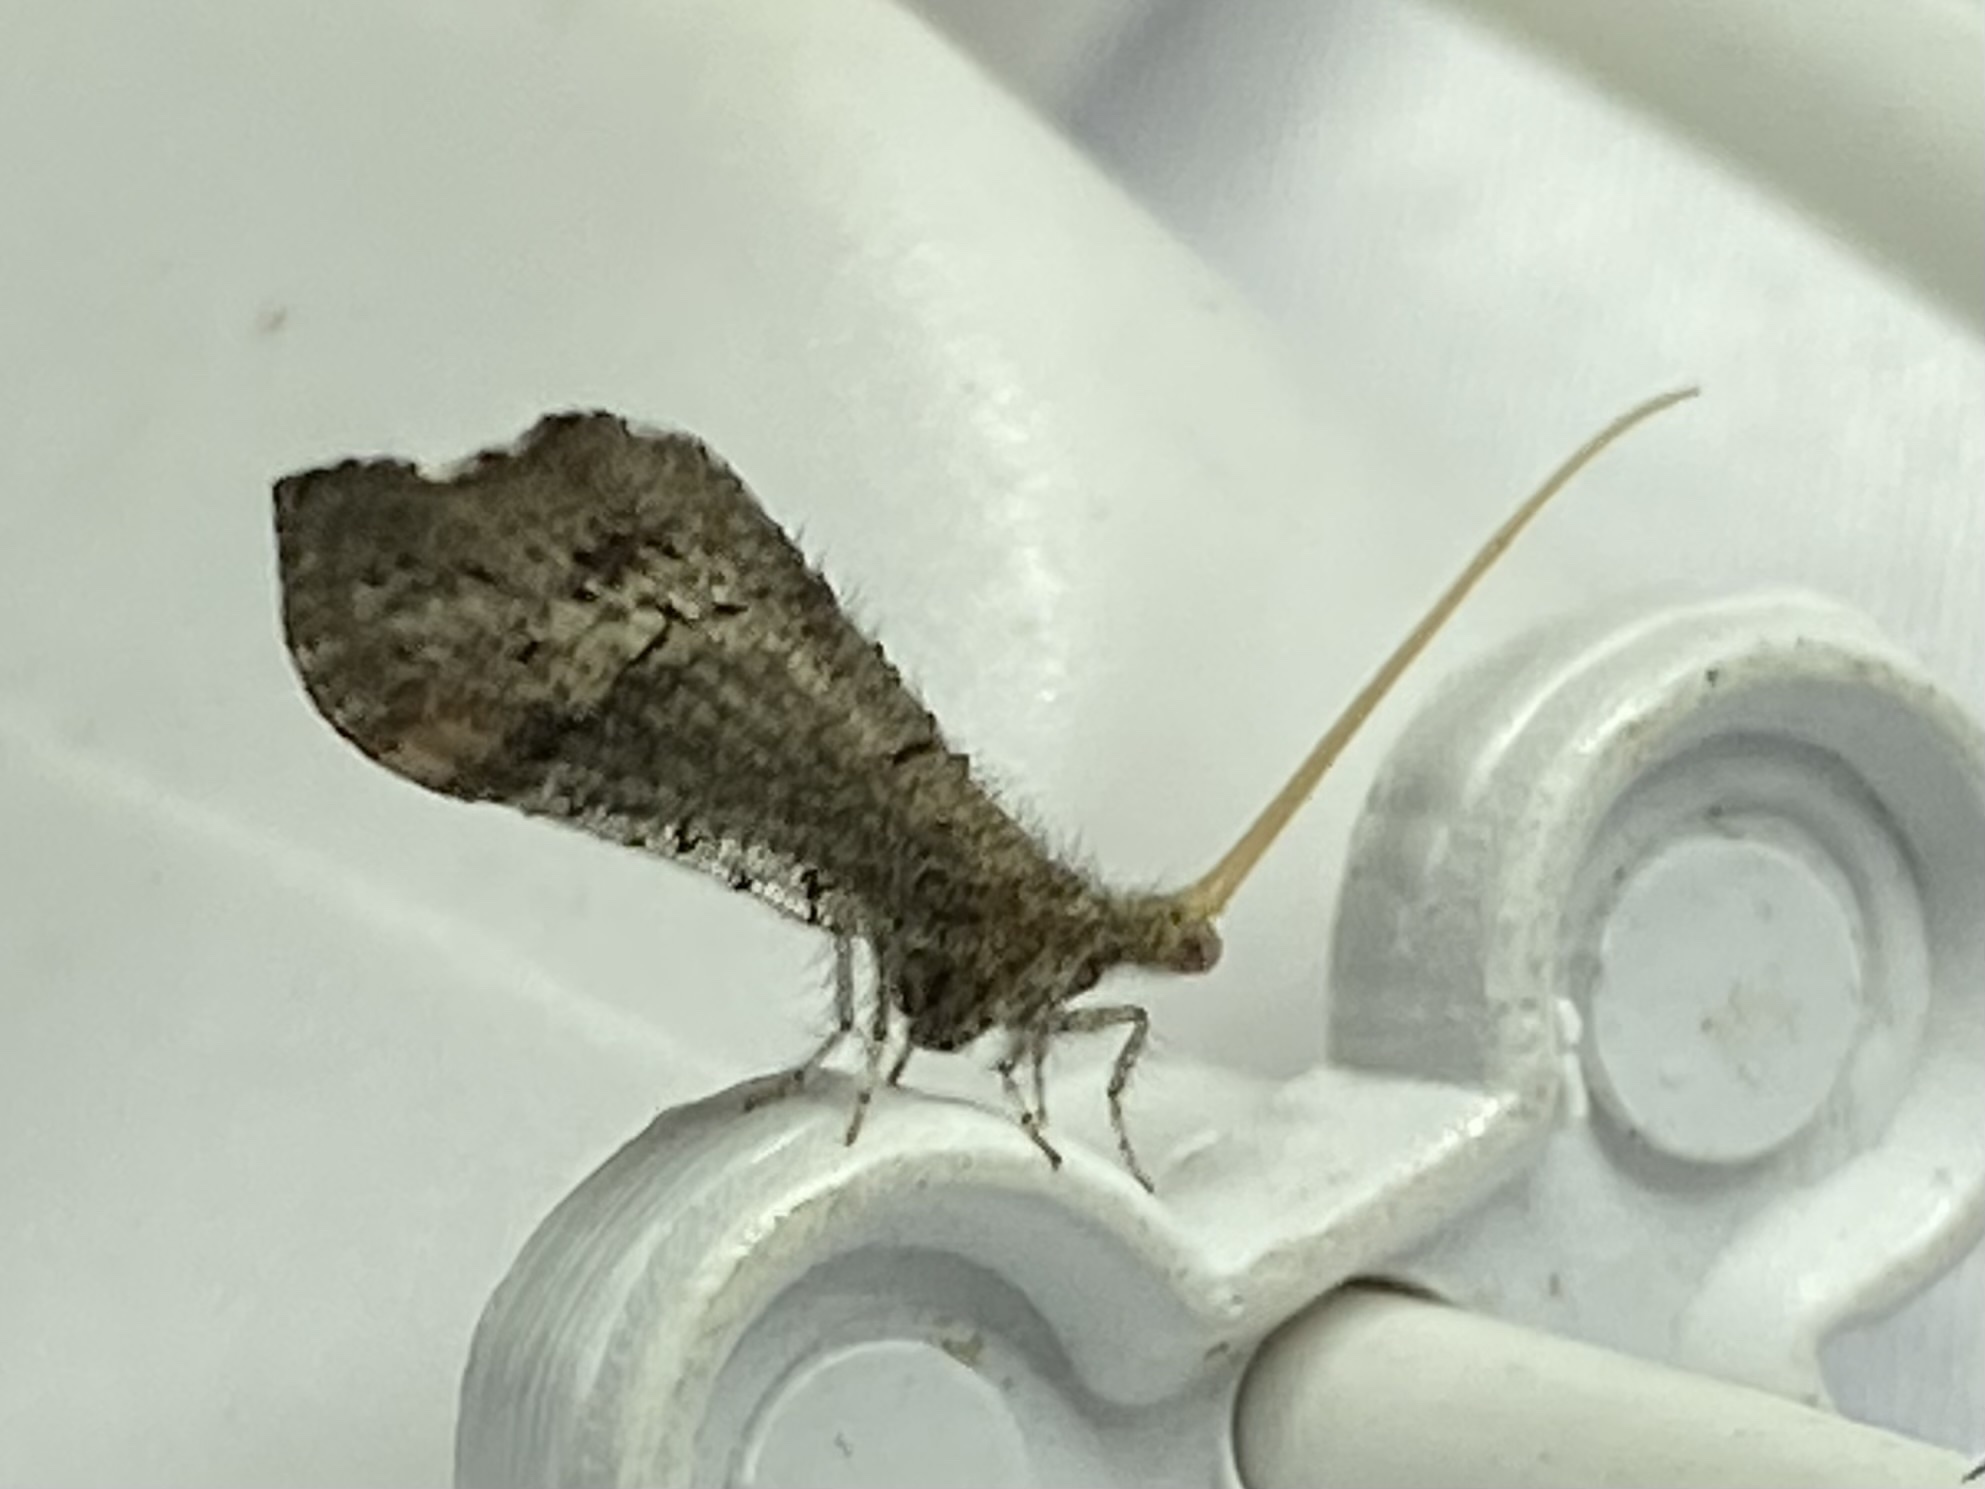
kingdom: Animalia
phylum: Arthropoda
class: Insecta
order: Neuroptera
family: Berothidae
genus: Lomamyia
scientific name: Lomamyia squamosa
